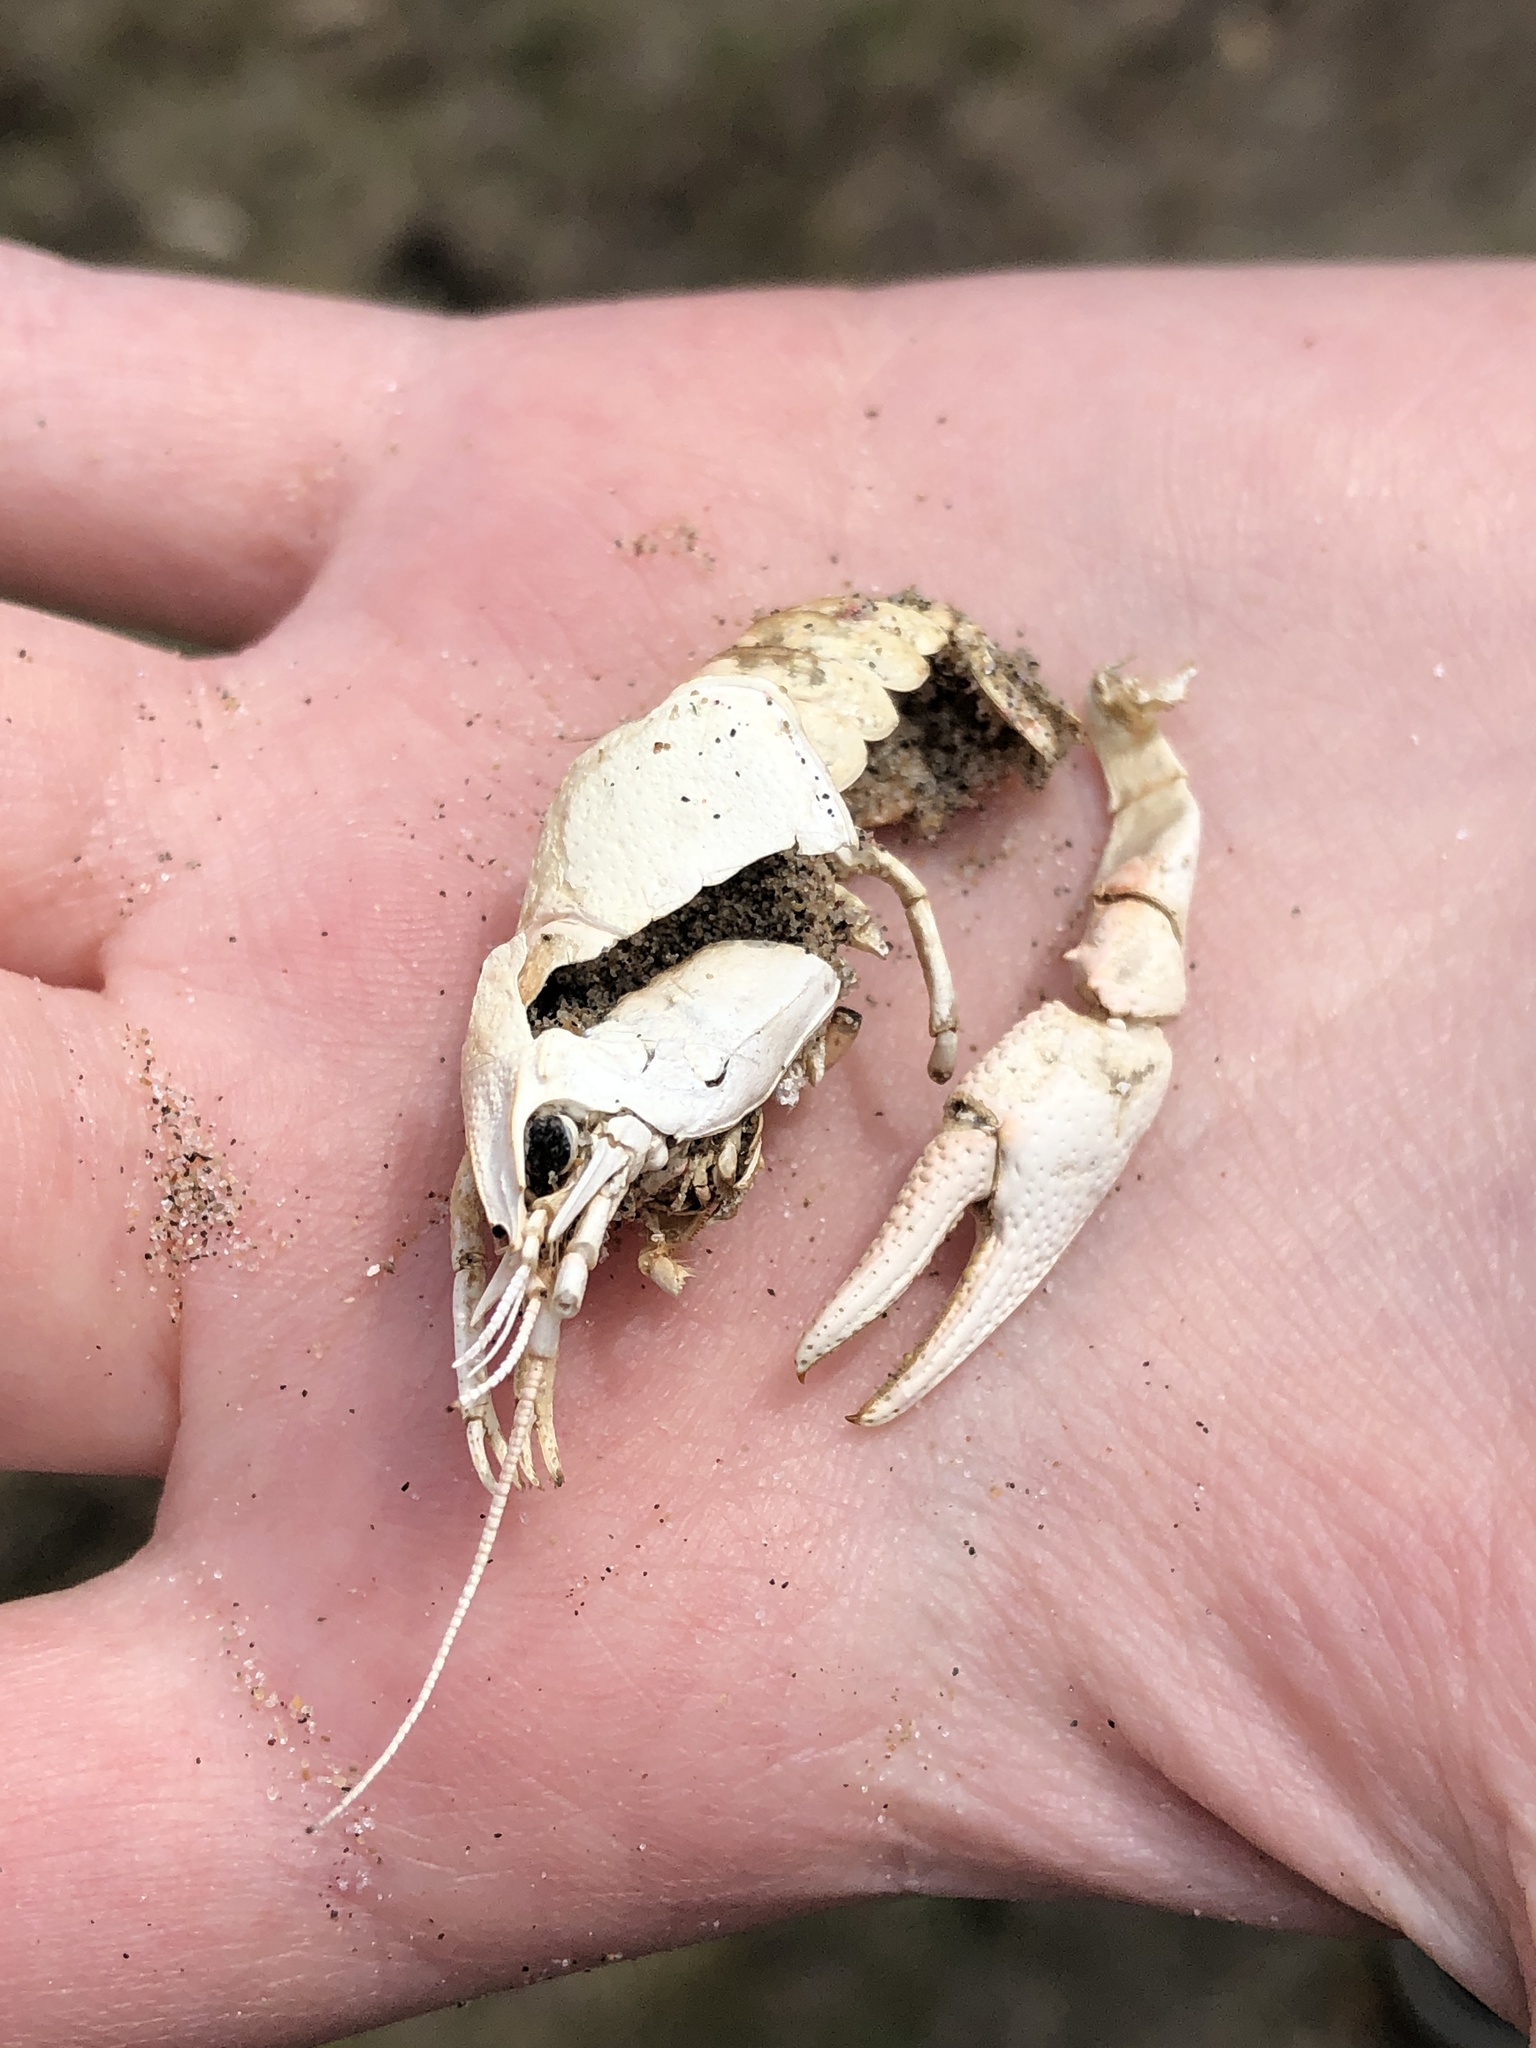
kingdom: Animalia
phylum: Arthropoda
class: Malacostraca
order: Decapoda
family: Cambaridae
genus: Faxonius
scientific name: Faxonius propinquus
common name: Northern clearwater crayfish
